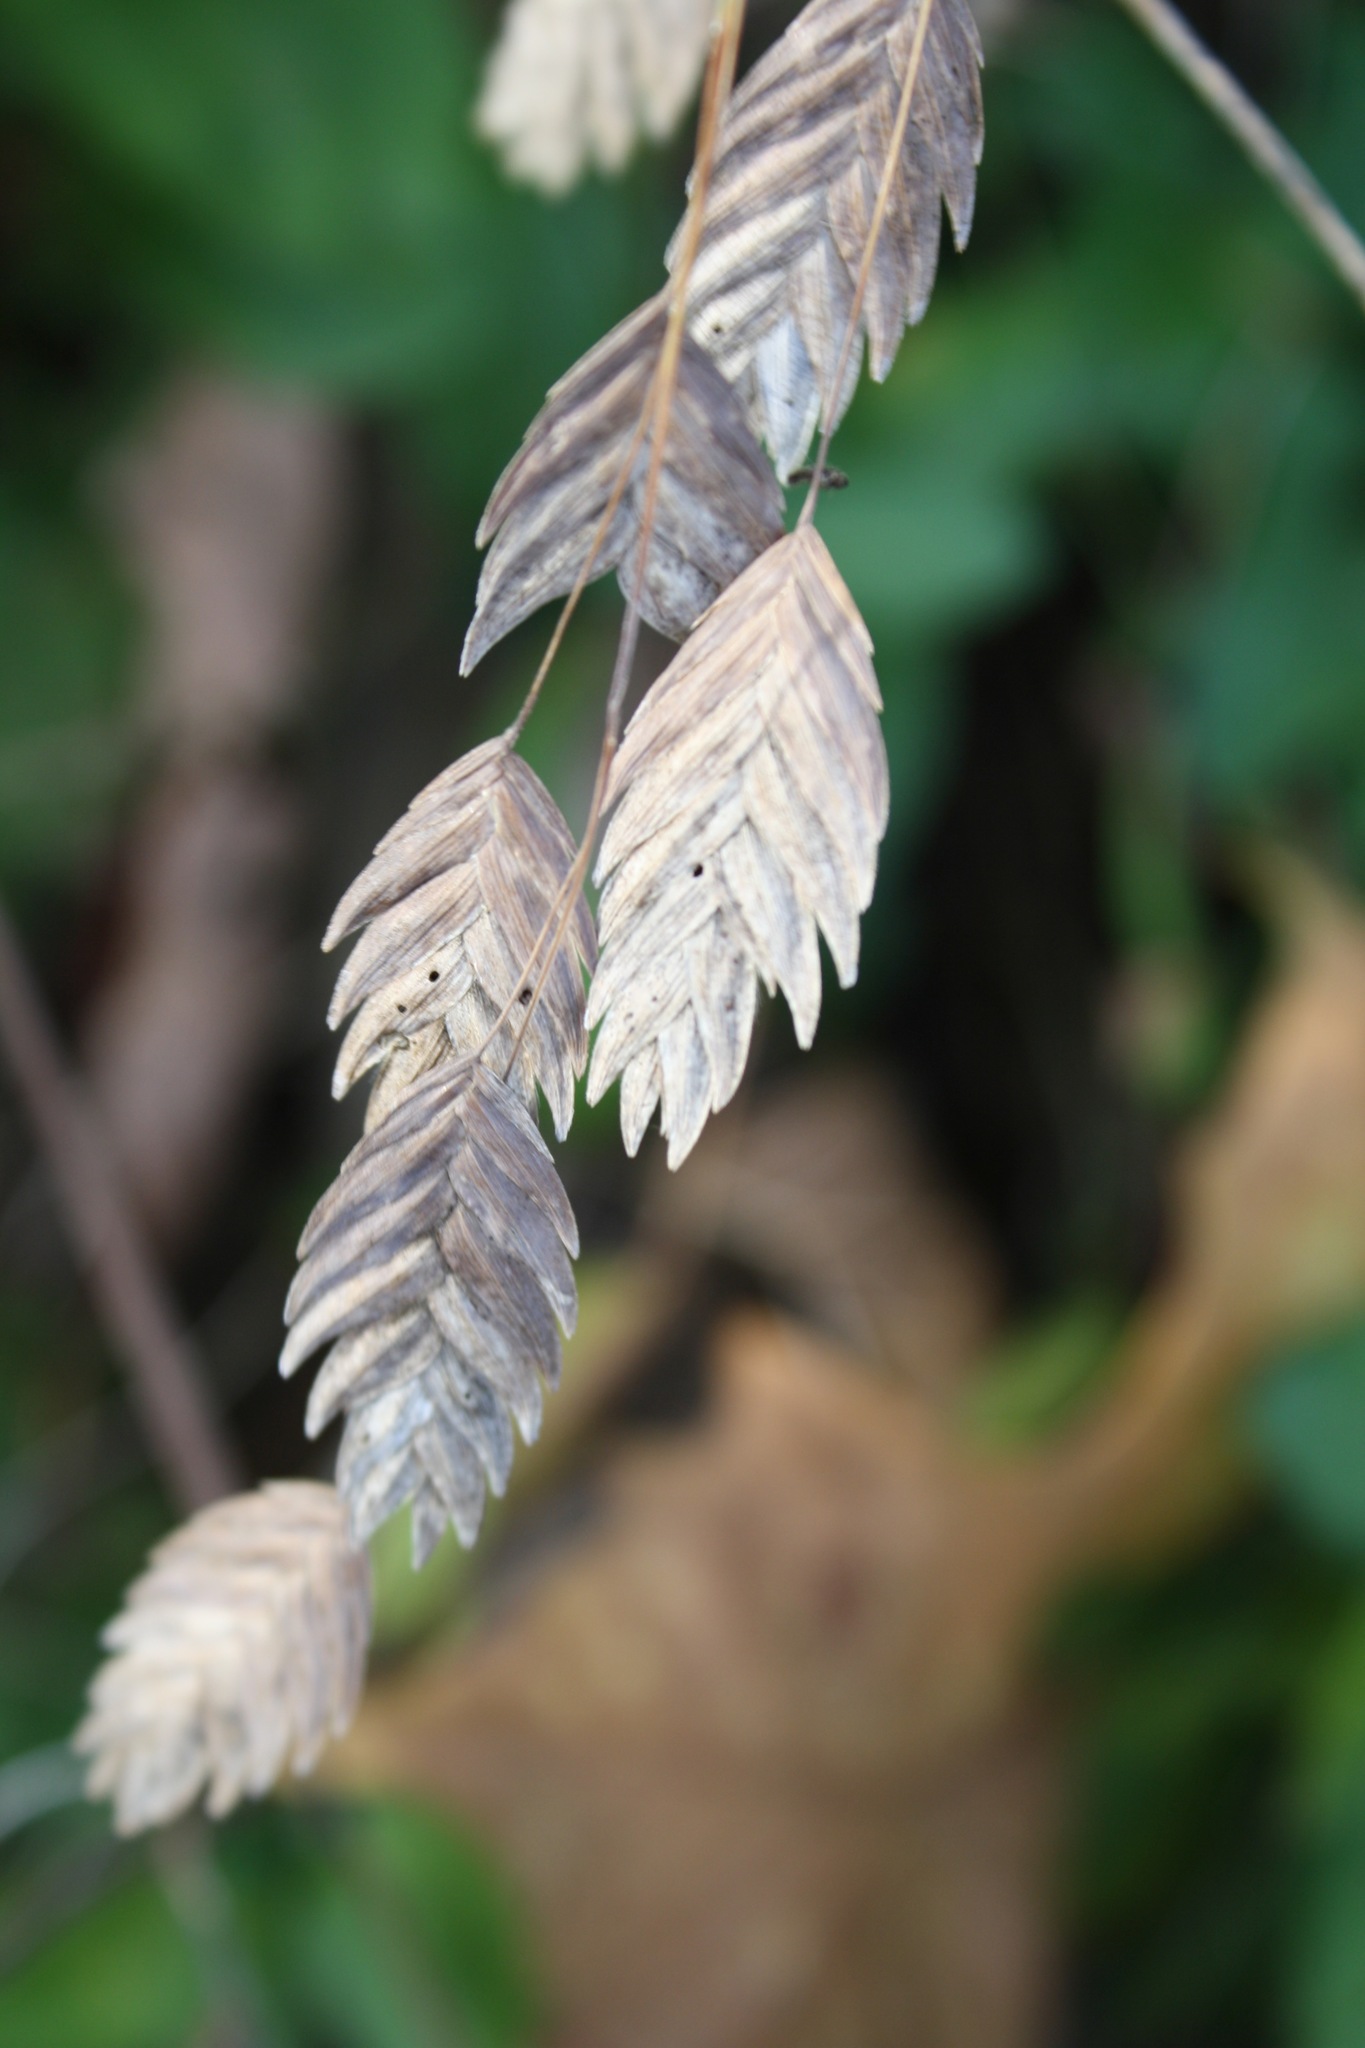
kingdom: Plantae
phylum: Tracheophyta
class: Liliopsida
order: Poales
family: Poaceae
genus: Chasmanthium
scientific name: Chasmanthium latifolium
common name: Broad-leaved chasmanthium
